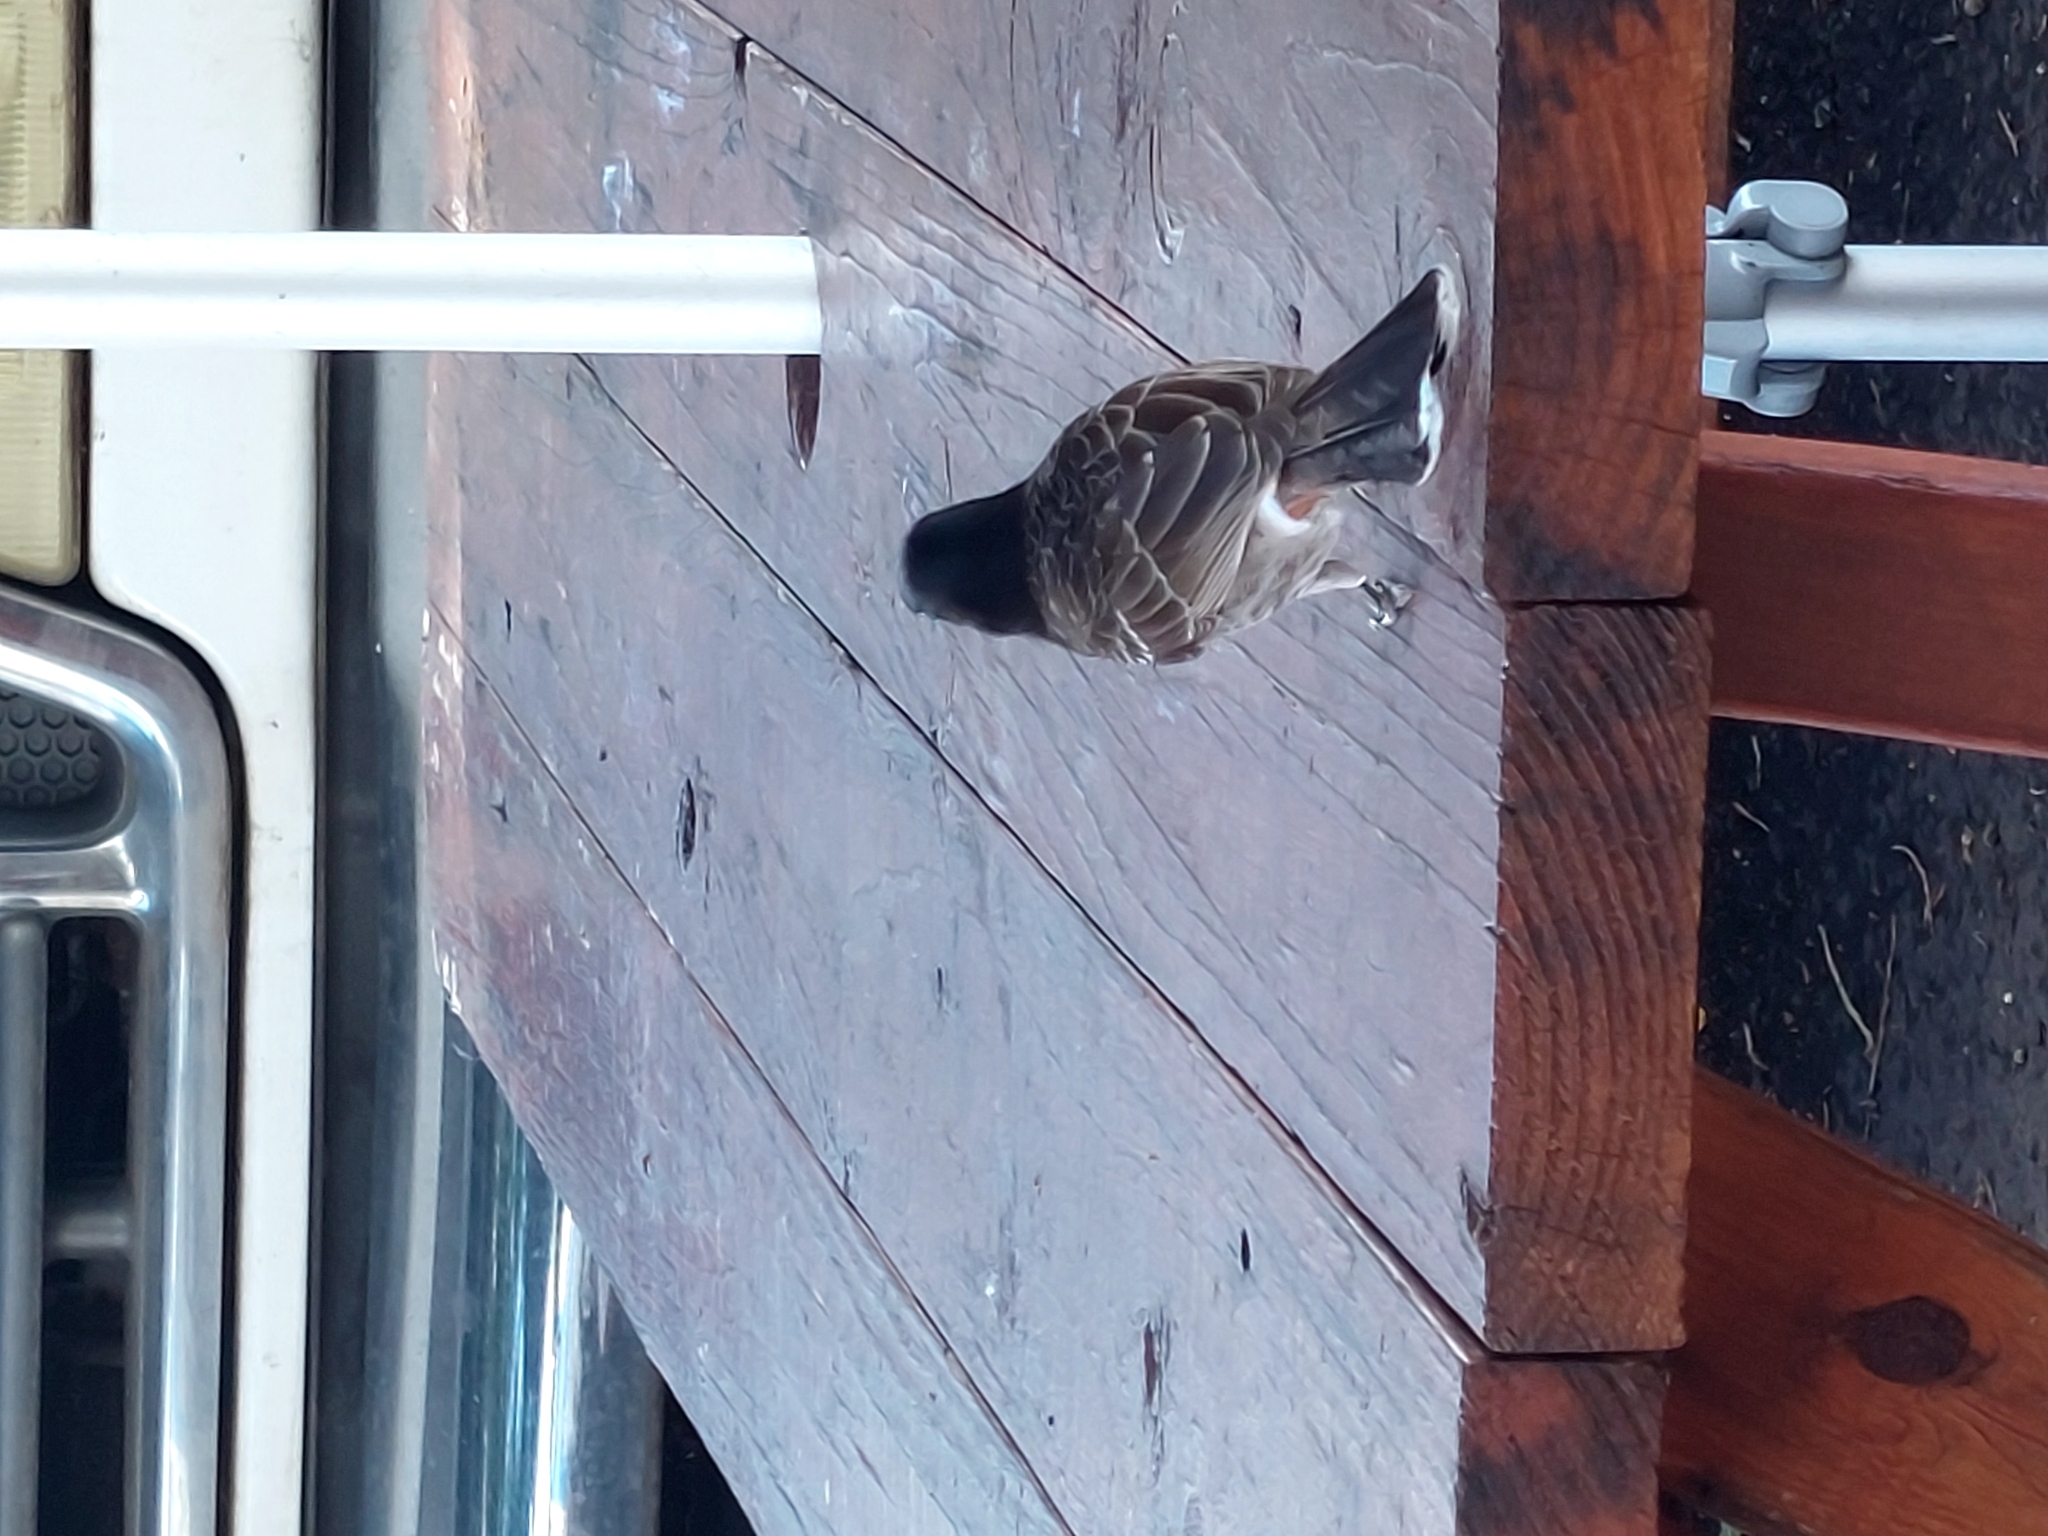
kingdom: Animalia
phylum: Chordata
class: Aves
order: Passeriformes
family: Pycnonotidae
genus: Pycnonotus
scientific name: Pycnonotus cafer
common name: Red-vented bulbul
